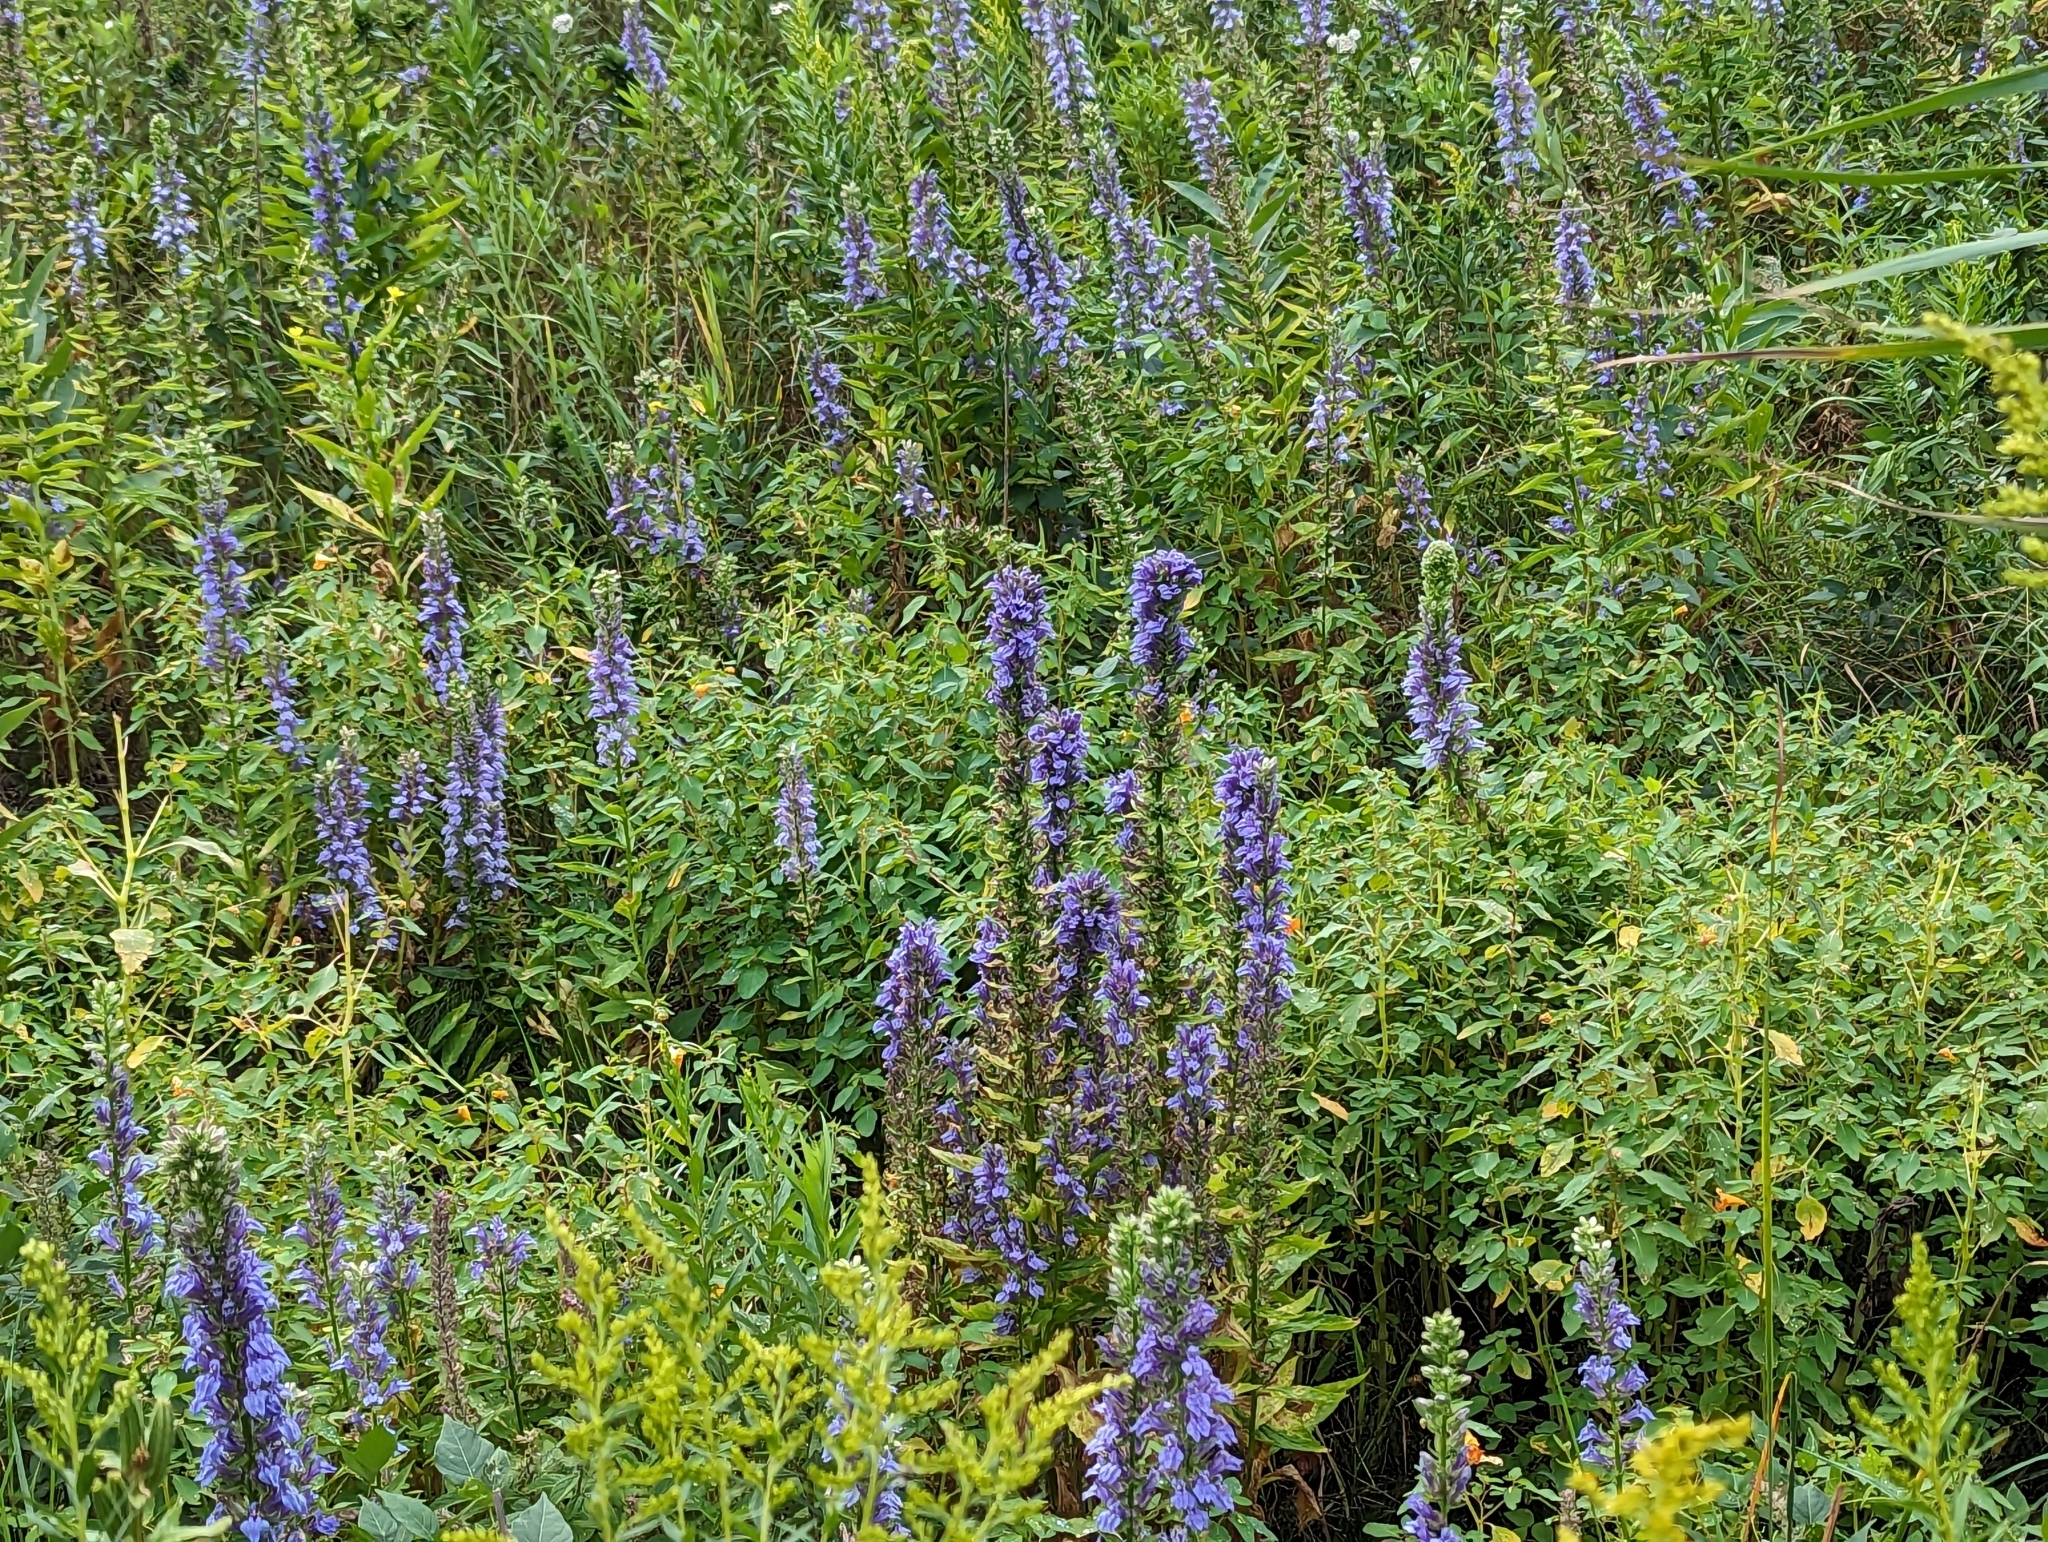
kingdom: Plantae
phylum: Tracheophyta
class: Magnoliopsida
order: Asterales
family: Campanulaceae
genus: Lobelia
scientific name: Lobelia siphilitica
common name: Great lobelia
